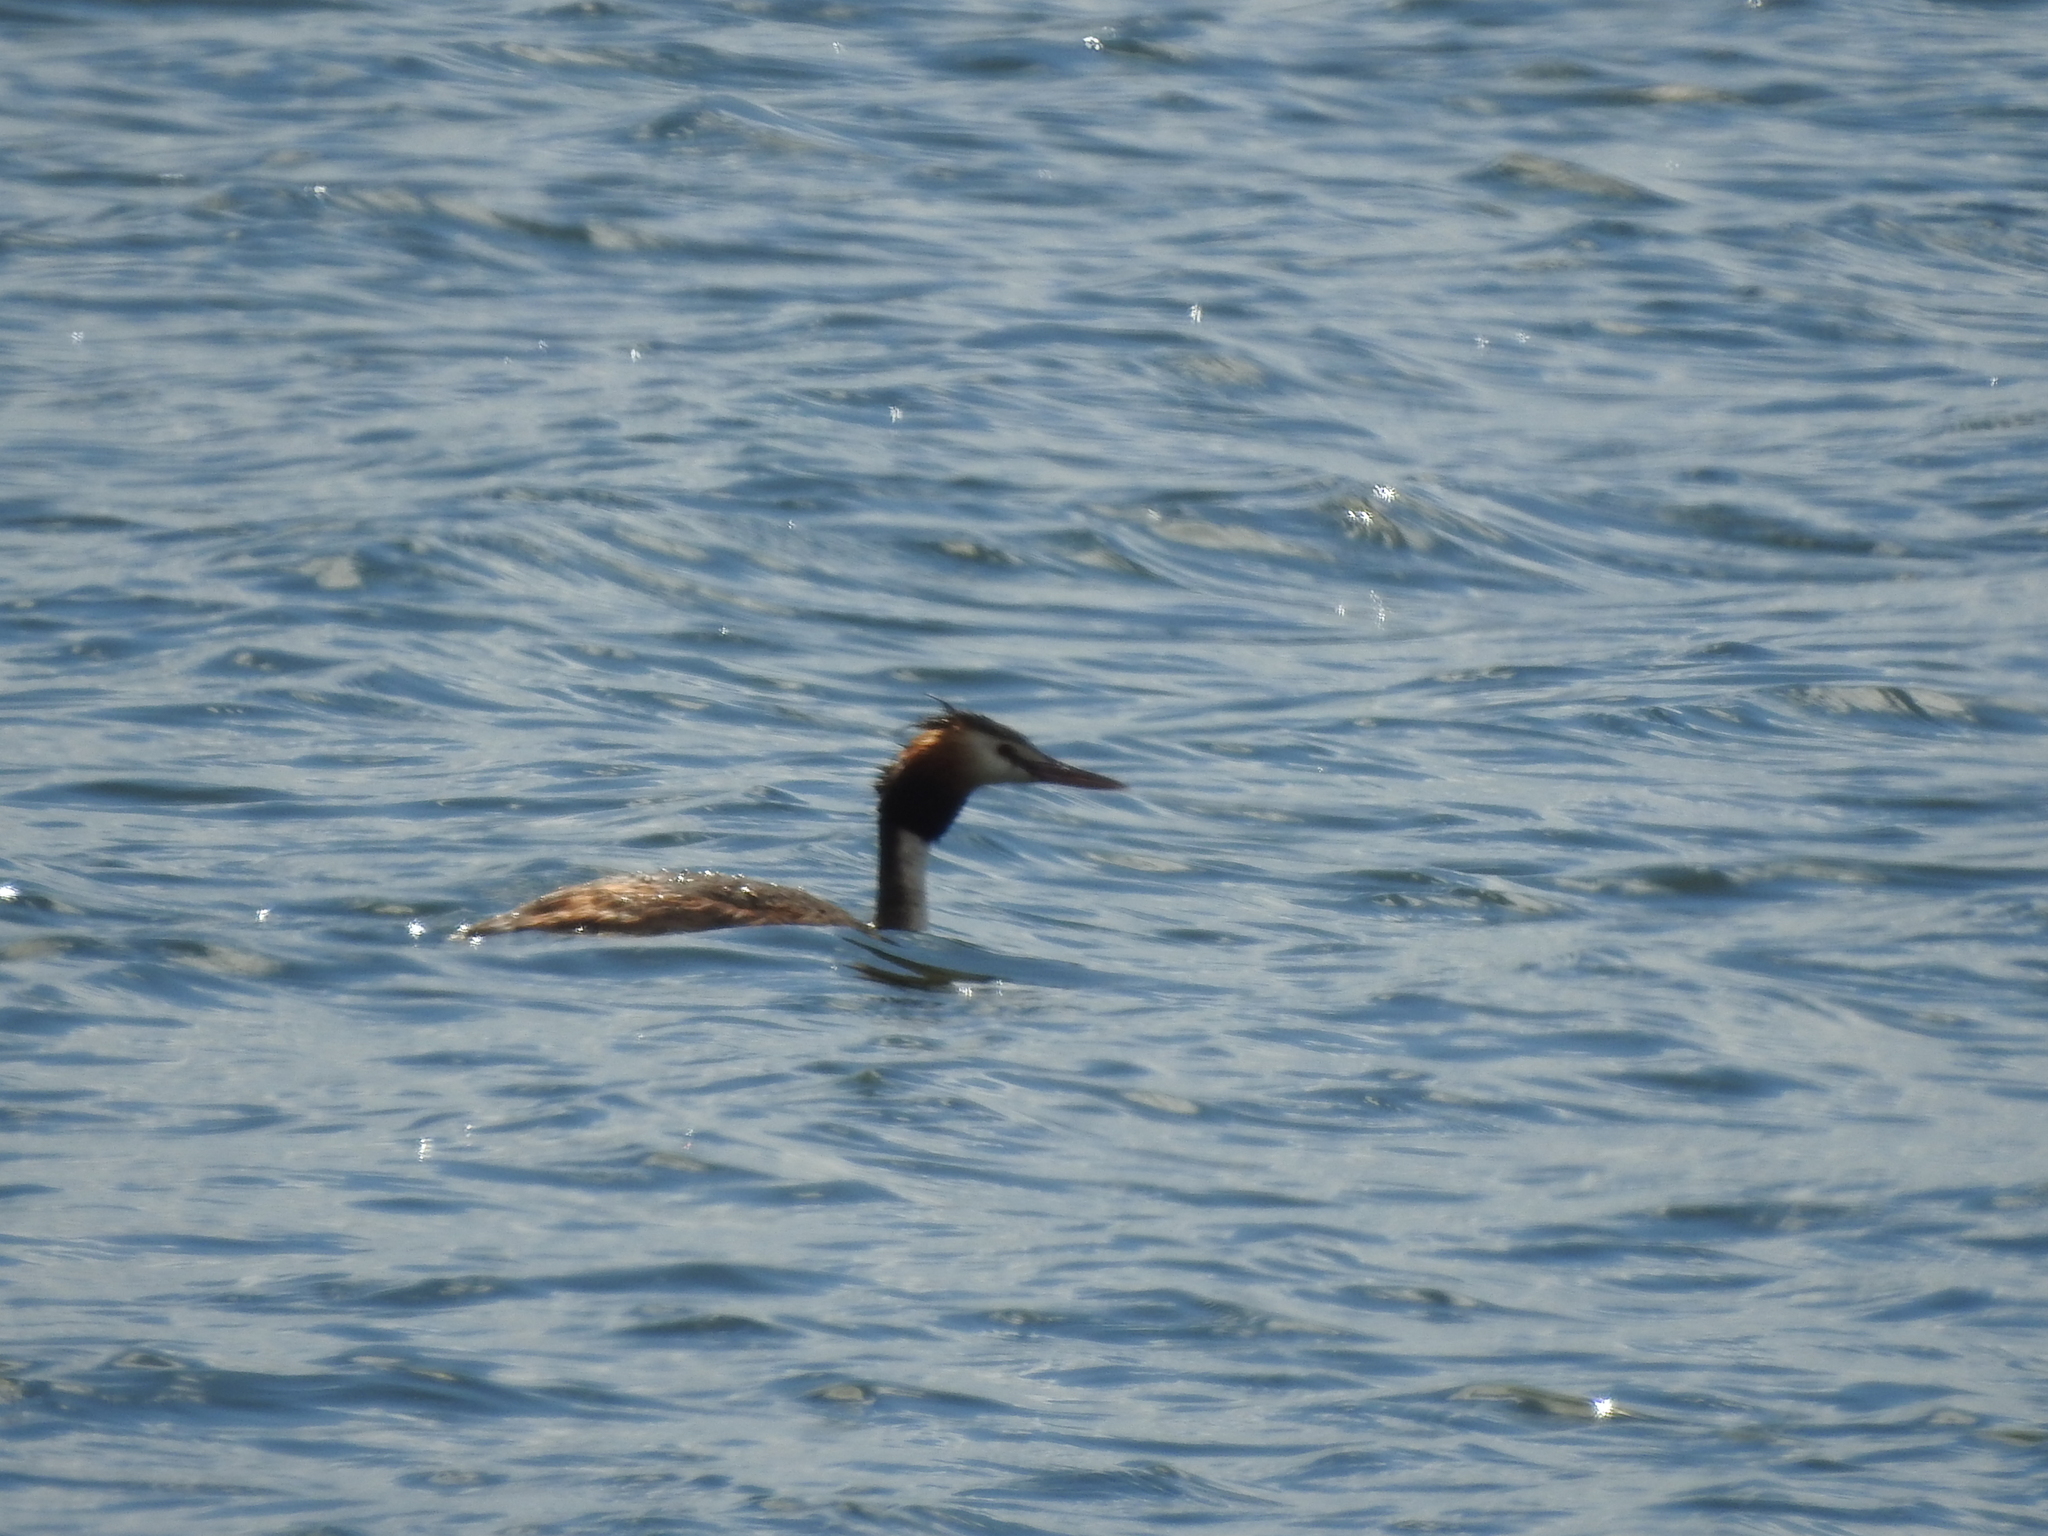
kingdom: Animalia
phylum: Chordata
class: Aves
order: Podicipediformes
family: Podicipedidae
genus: Podiceps
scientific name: Podiceps cristatus
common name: Great crested grebe
